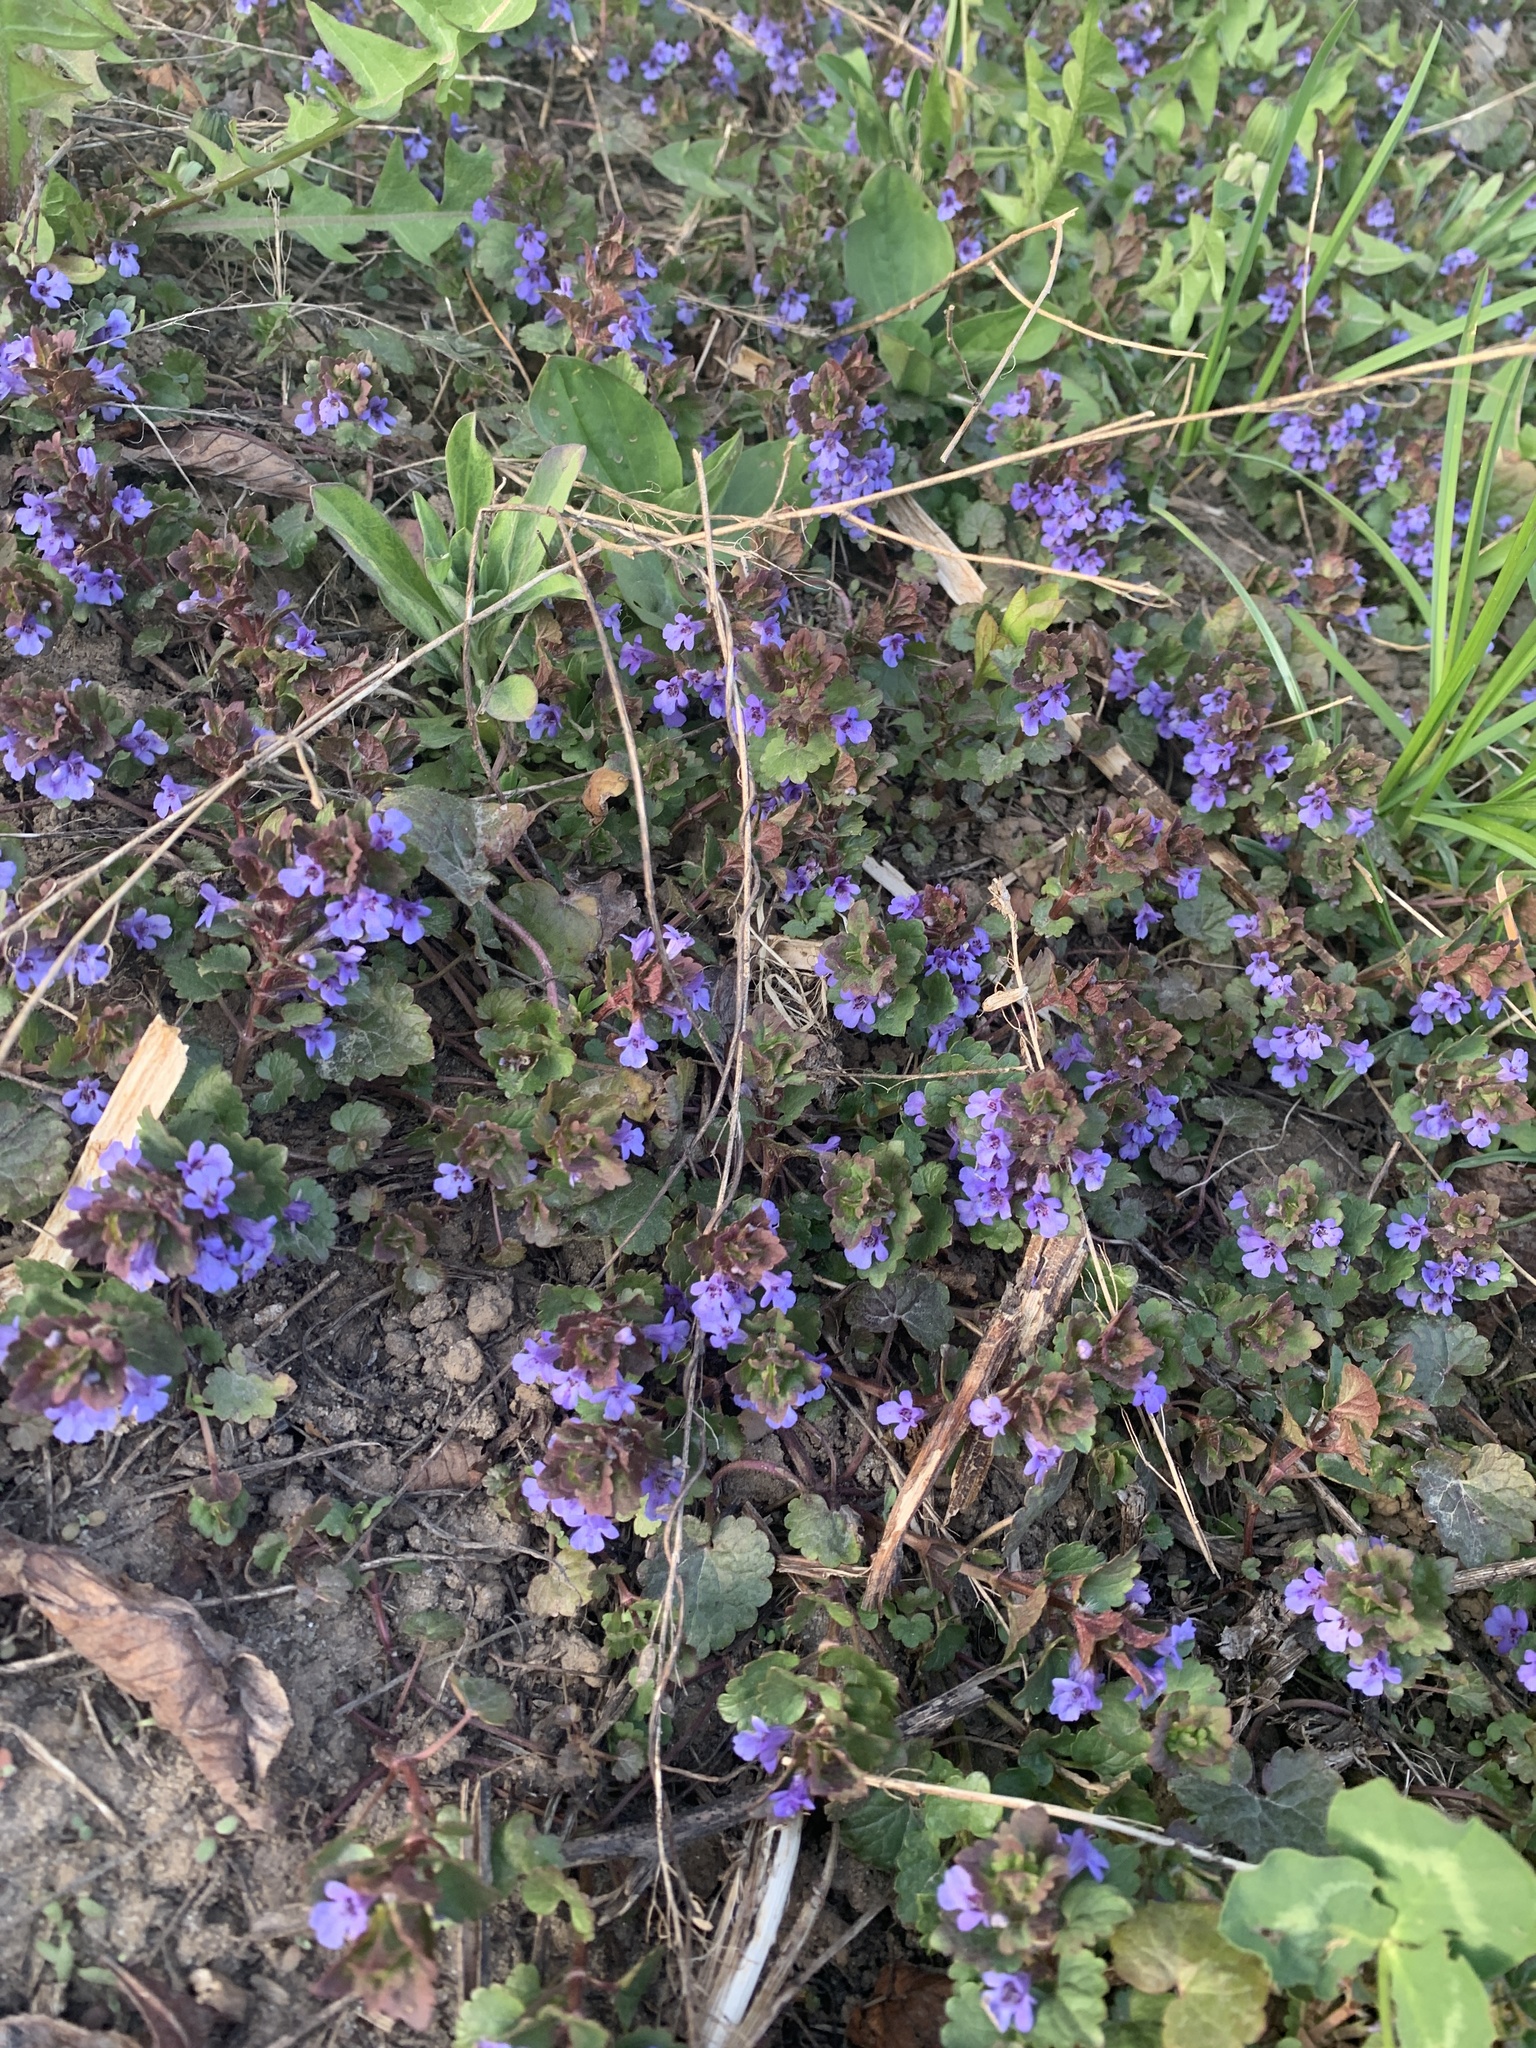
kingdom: Plantae
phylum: Tracheophyta
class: Magnoliopsida
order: Lamiales
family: Lamiaceae
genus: Glechoma
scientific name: Glechoma hederacea
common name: Ground ivy
